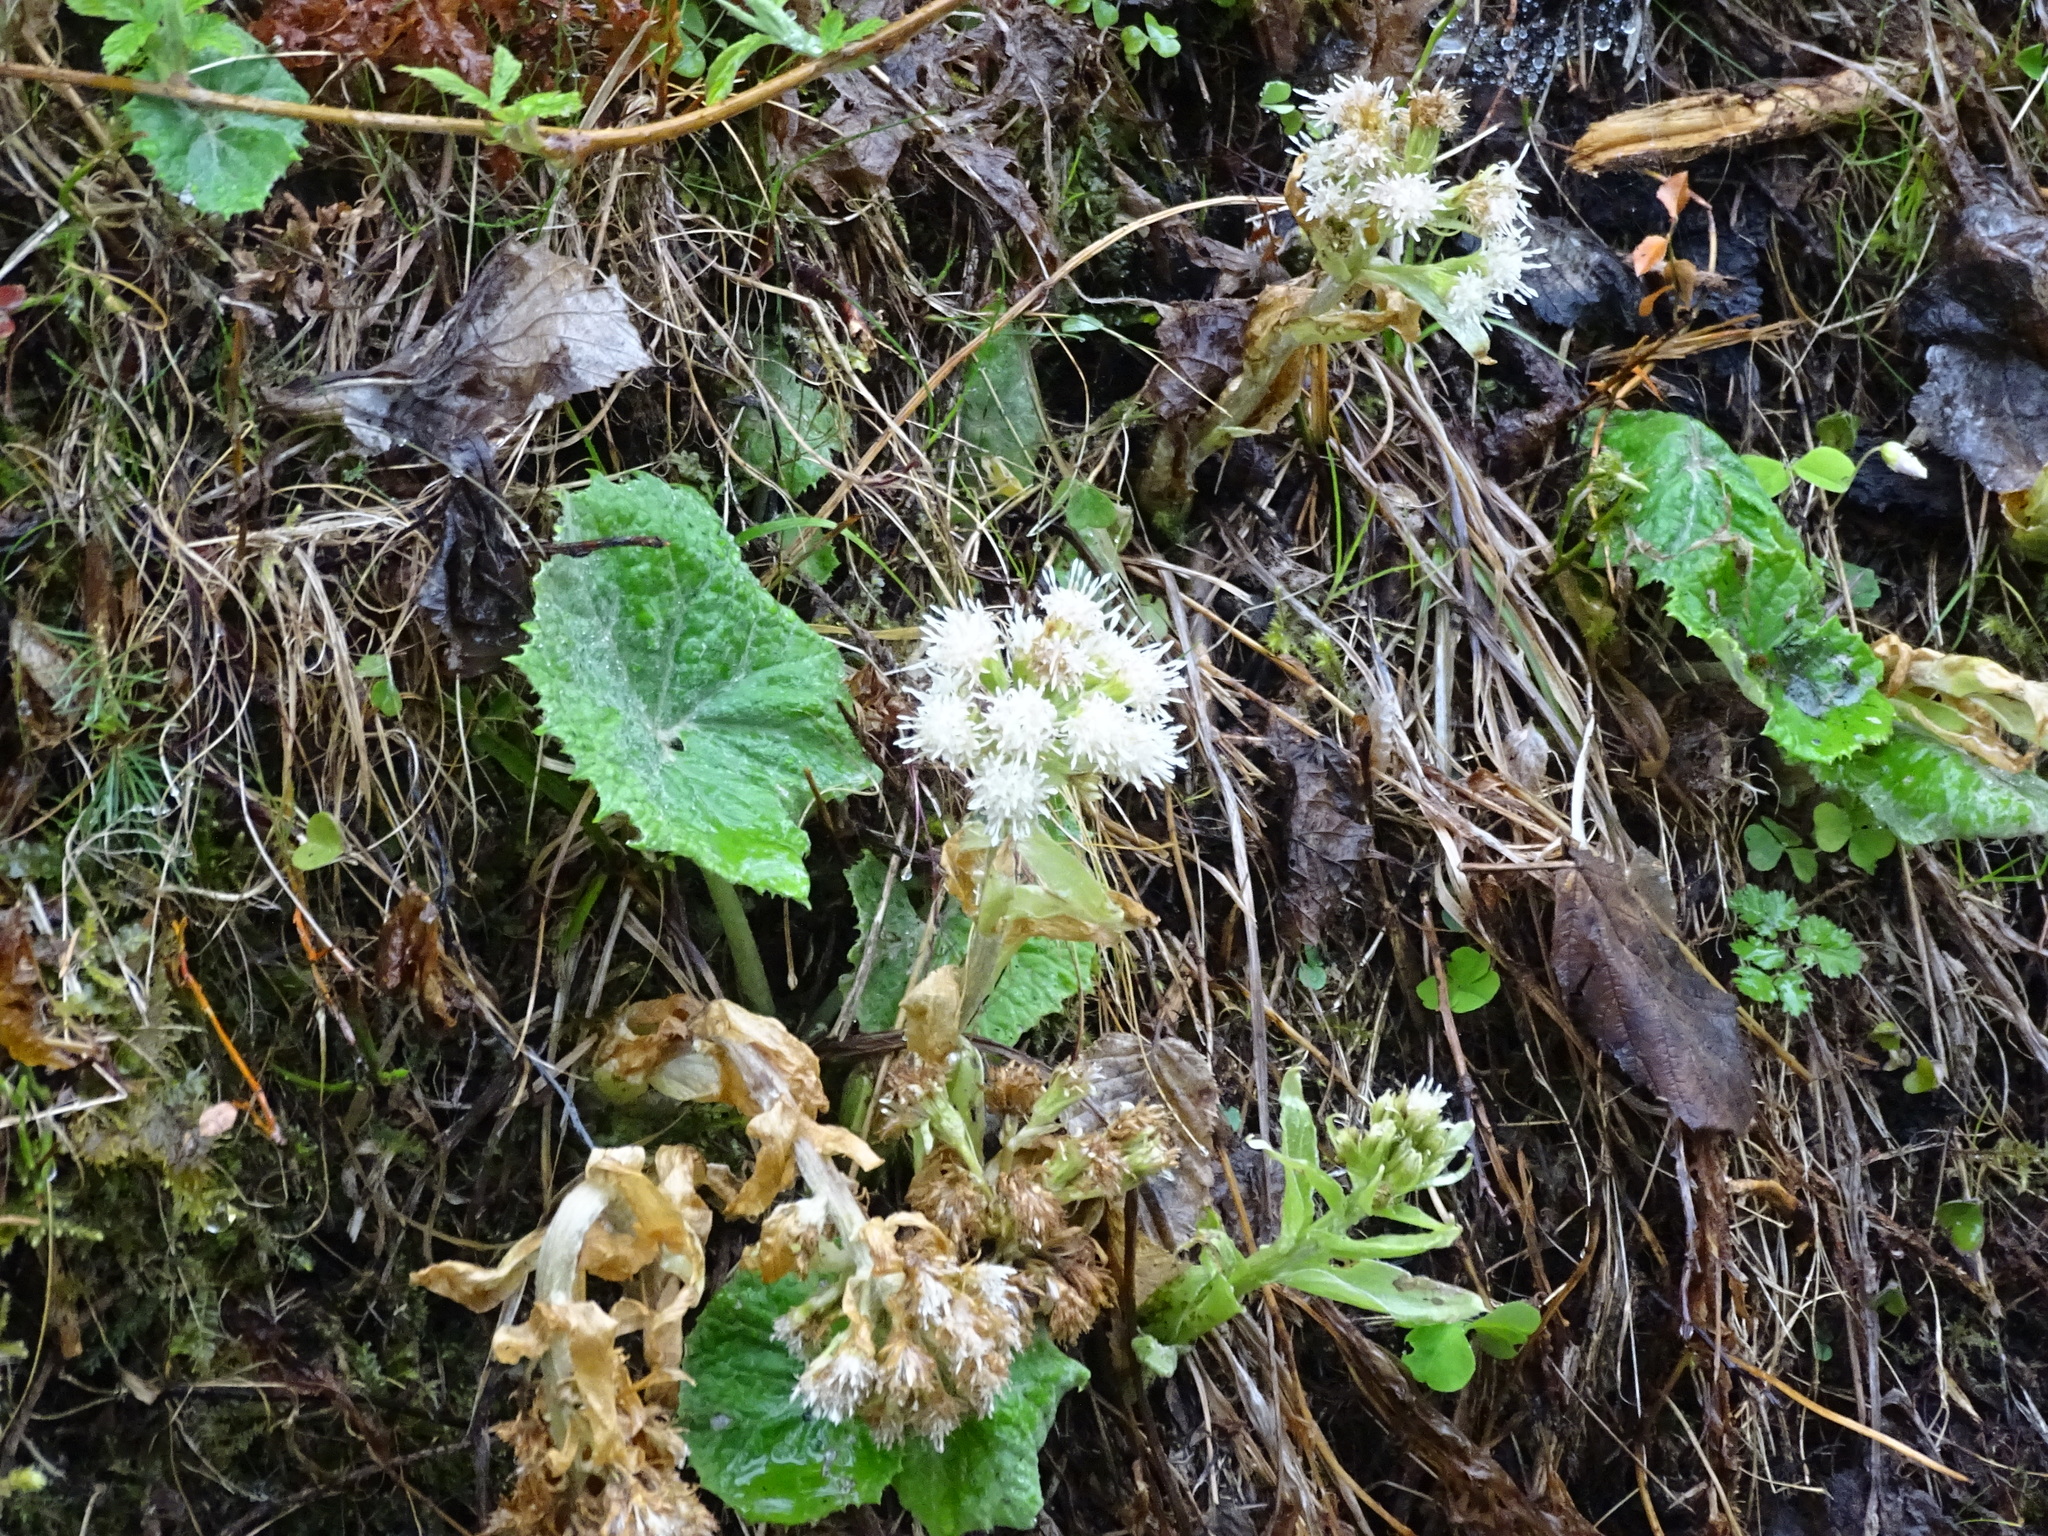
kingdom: Plantae
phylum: Tracheophyta
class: Magnoliopsida
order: Asterales
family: Asteraceae
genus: Petasites
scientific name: Petasites albus
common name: White butterbur
